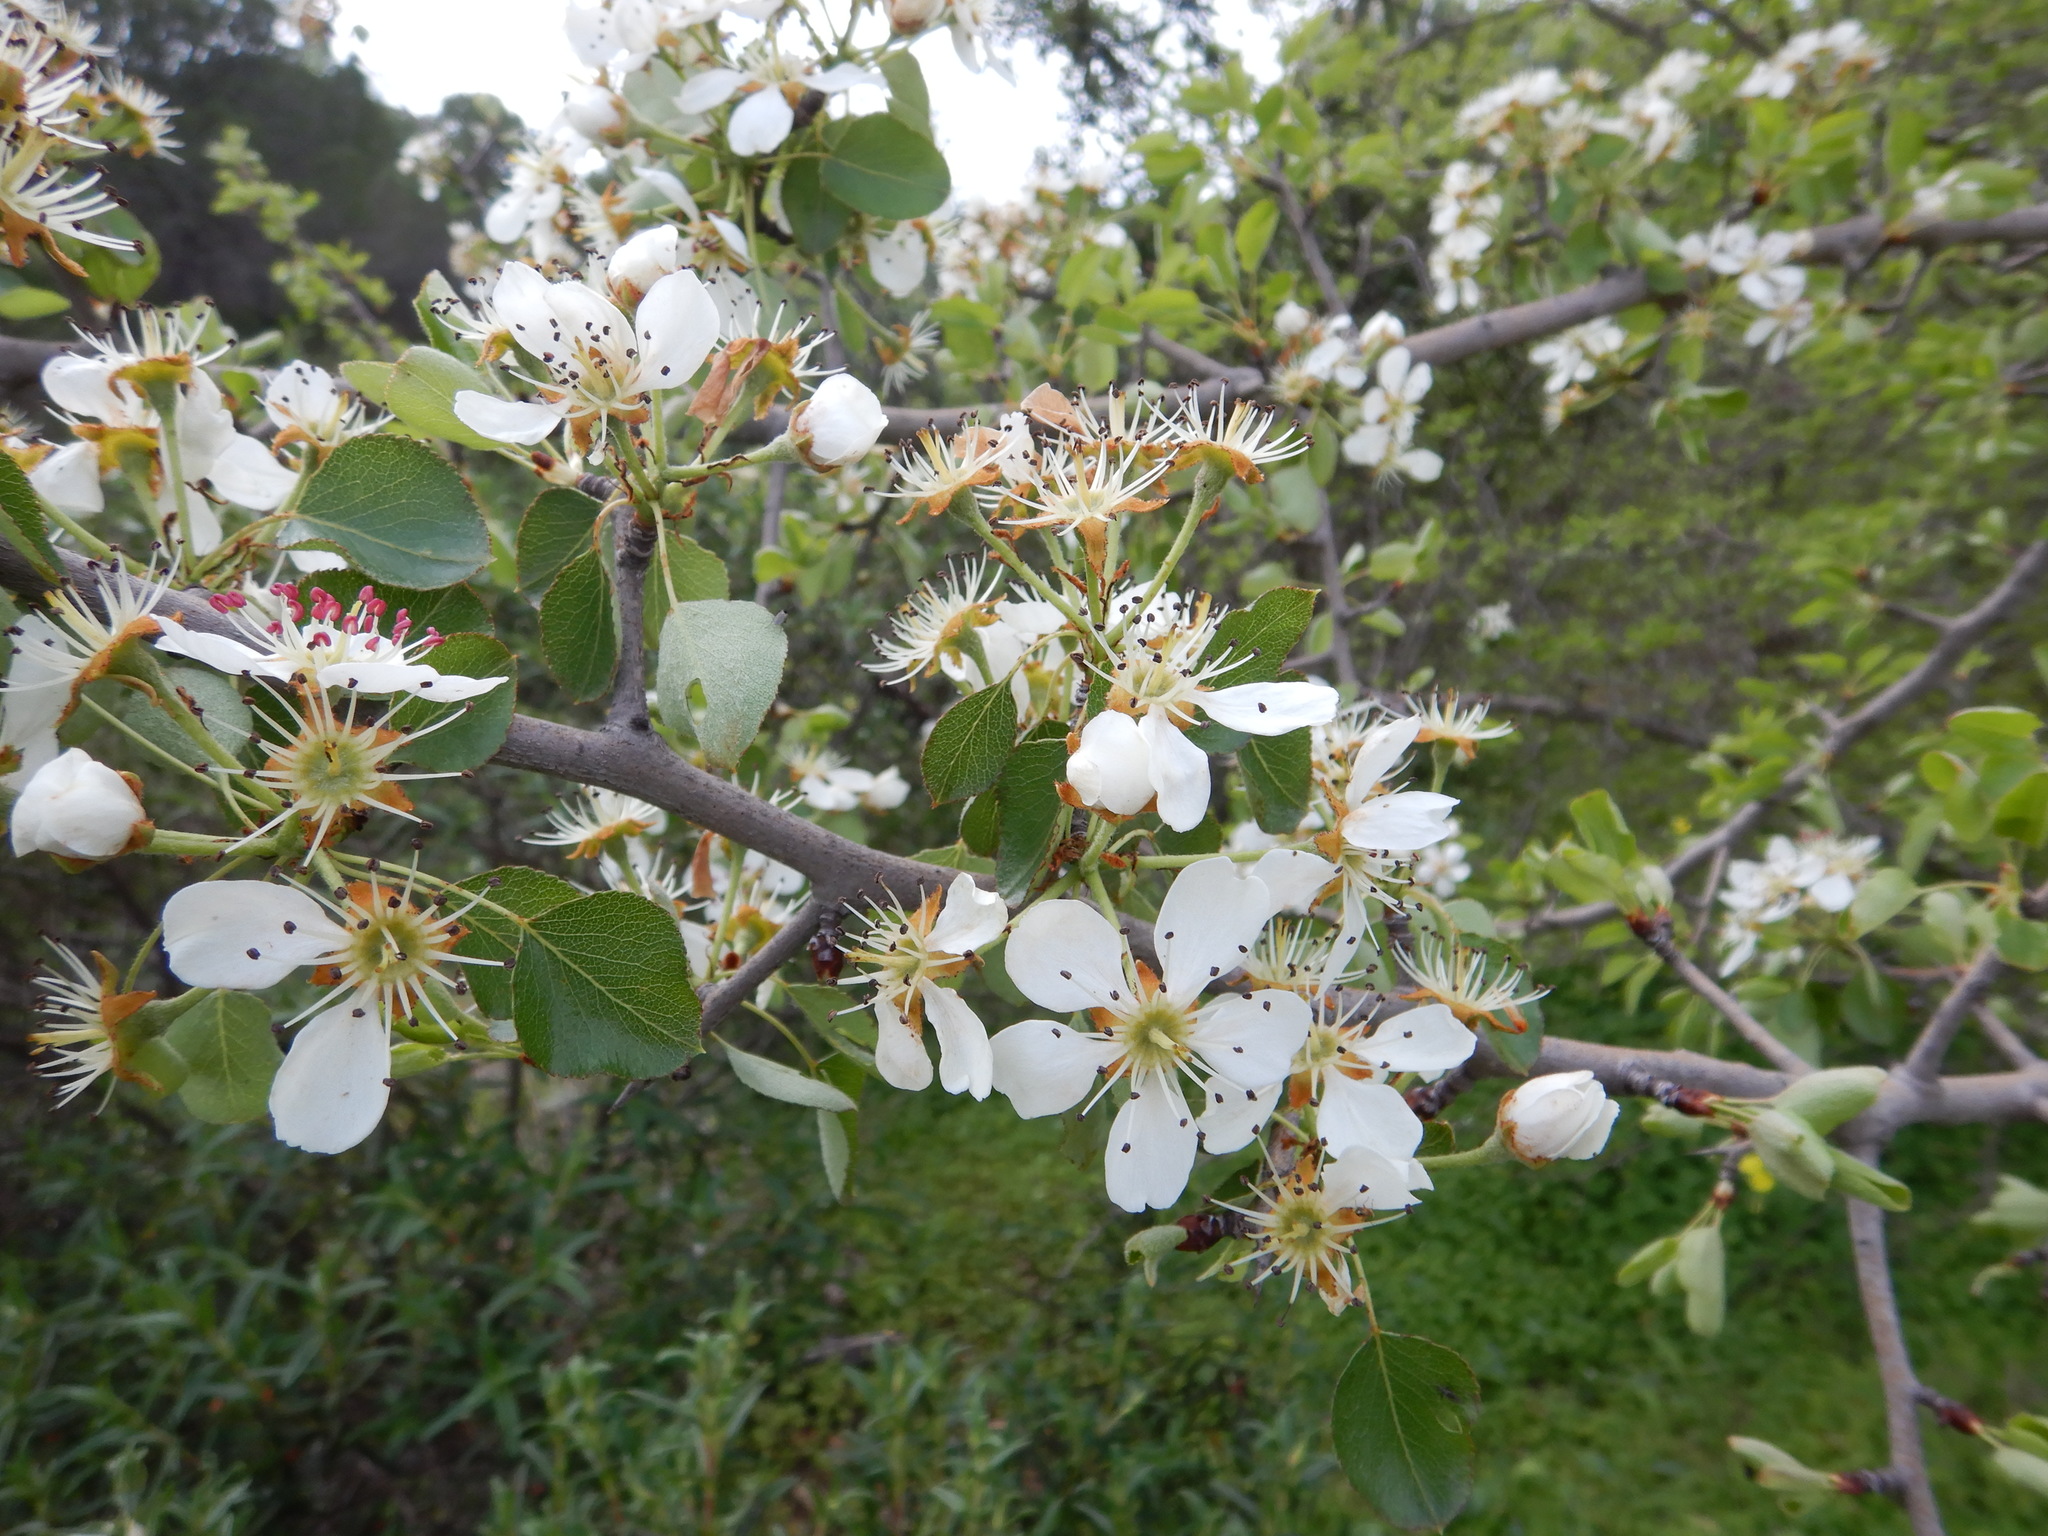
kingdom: Plantae
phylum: Tracheophyta
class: Magnoliopsida
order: Rosales
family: Rosaceae
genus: Pyrus
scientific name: Pyrus bourgaeana
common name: Iberian pear
